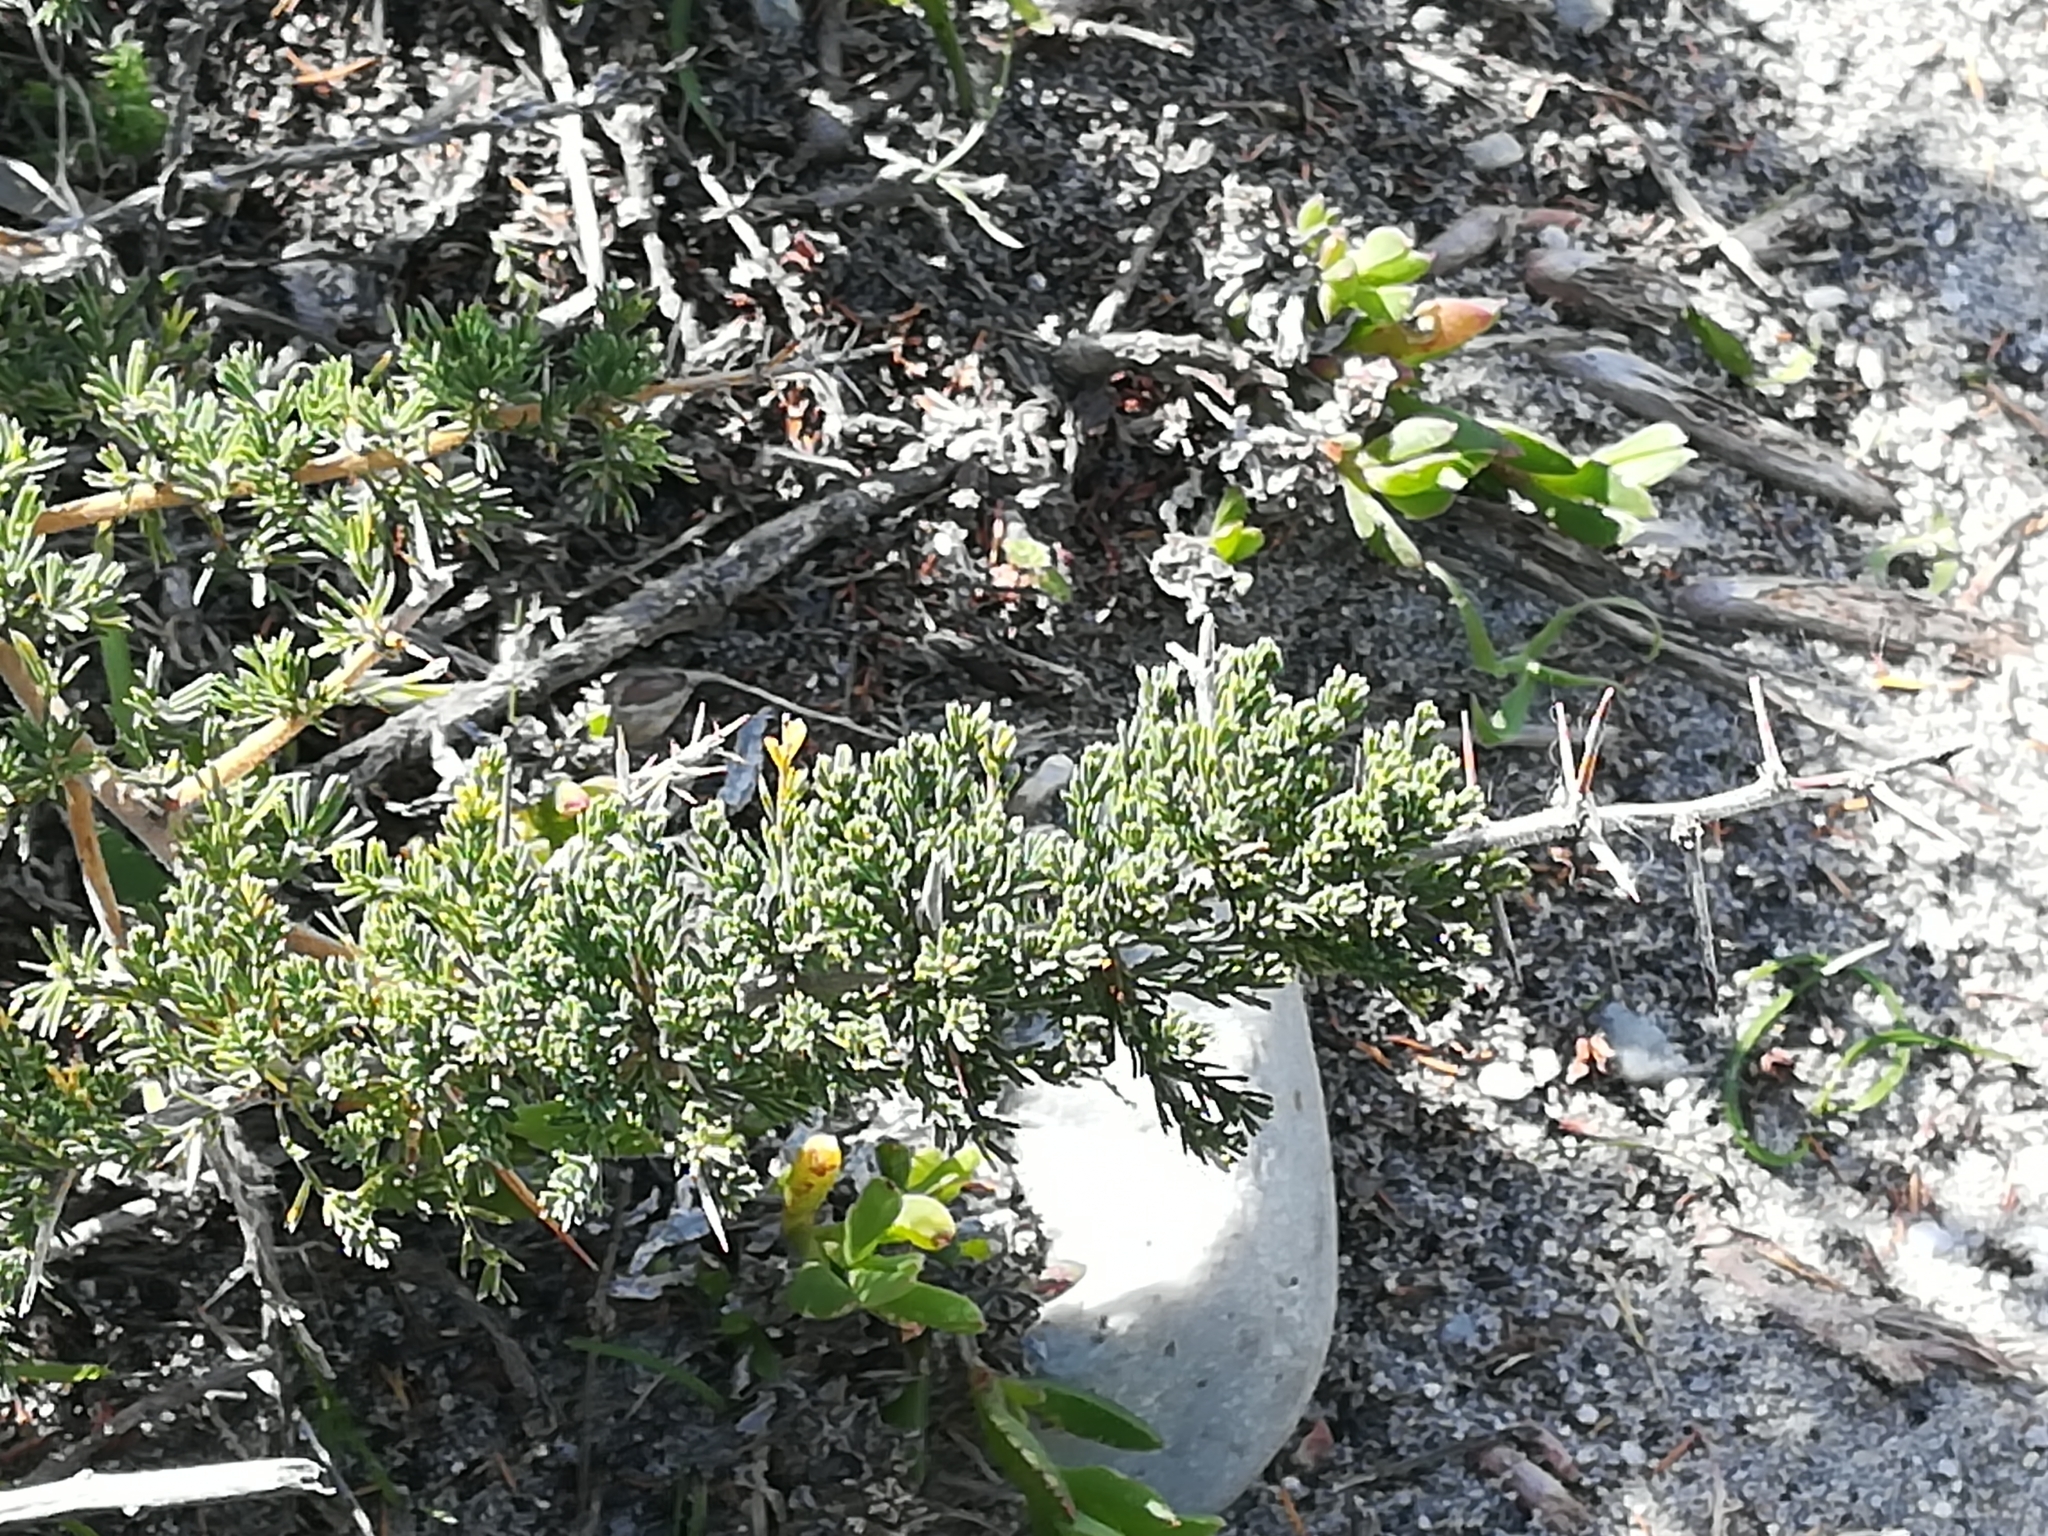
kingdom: Plantae
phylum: Tracheophyta
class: Liliopsida
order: Asparagales
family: Asparagaceae
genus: Asparagus
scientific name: Asparagus capensis
